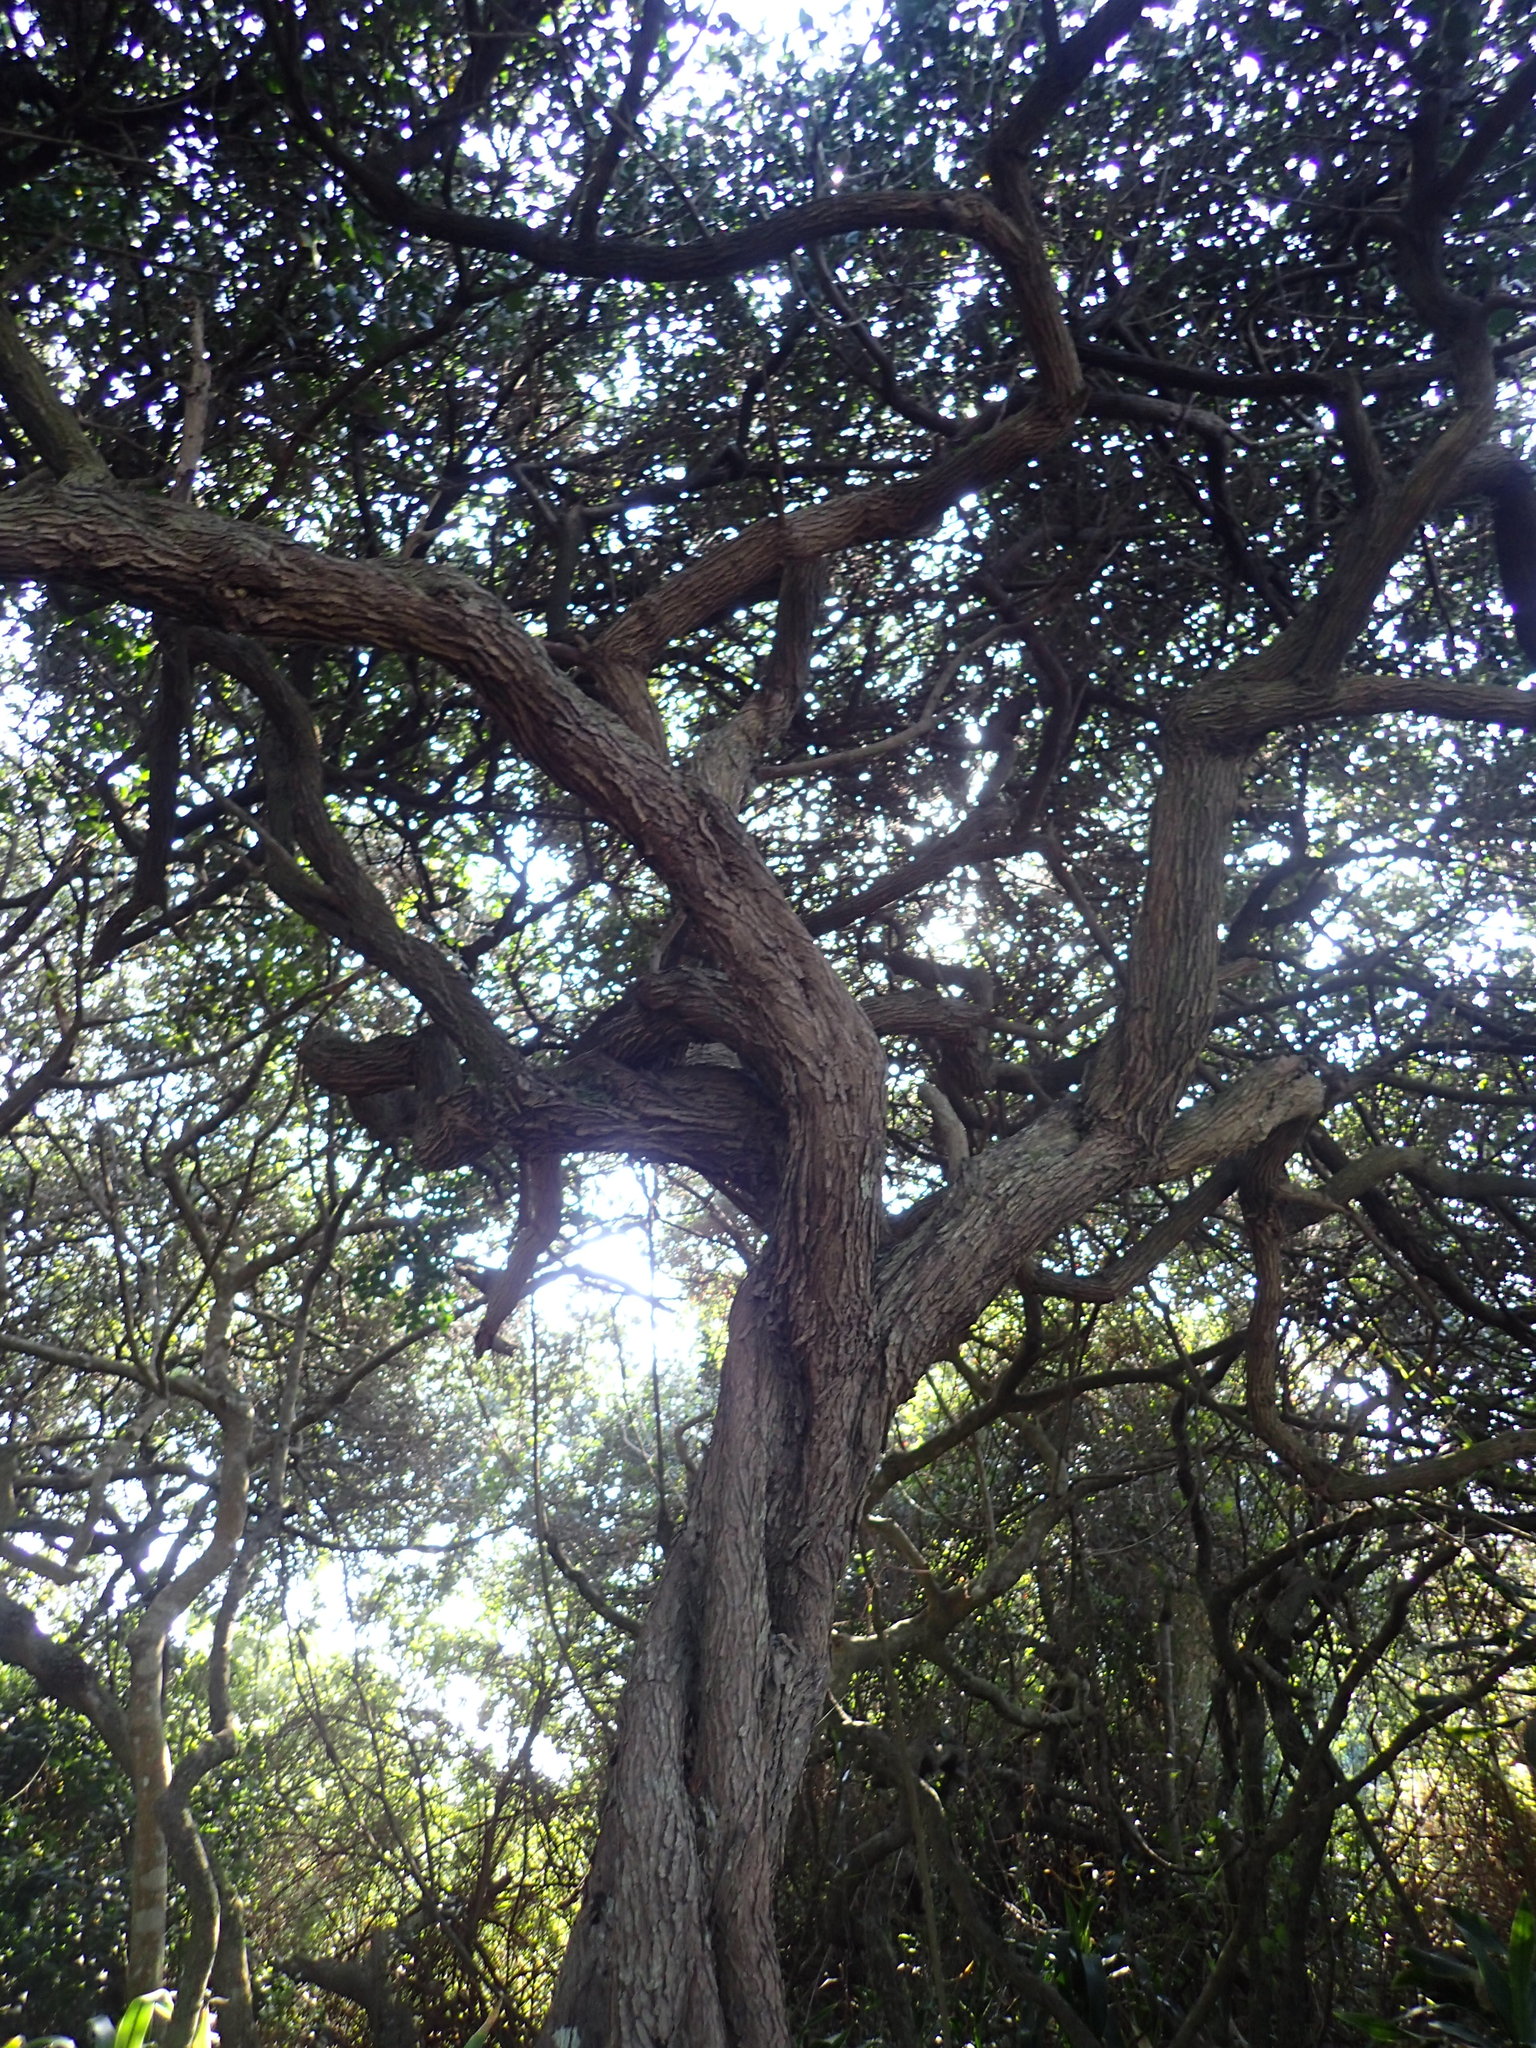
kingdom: Plantae
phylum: Tracheophyta
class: Magnoliopsida
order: Gentianales
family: Rubiaceae
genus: Psydrax
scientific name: Psydrax obovatus
